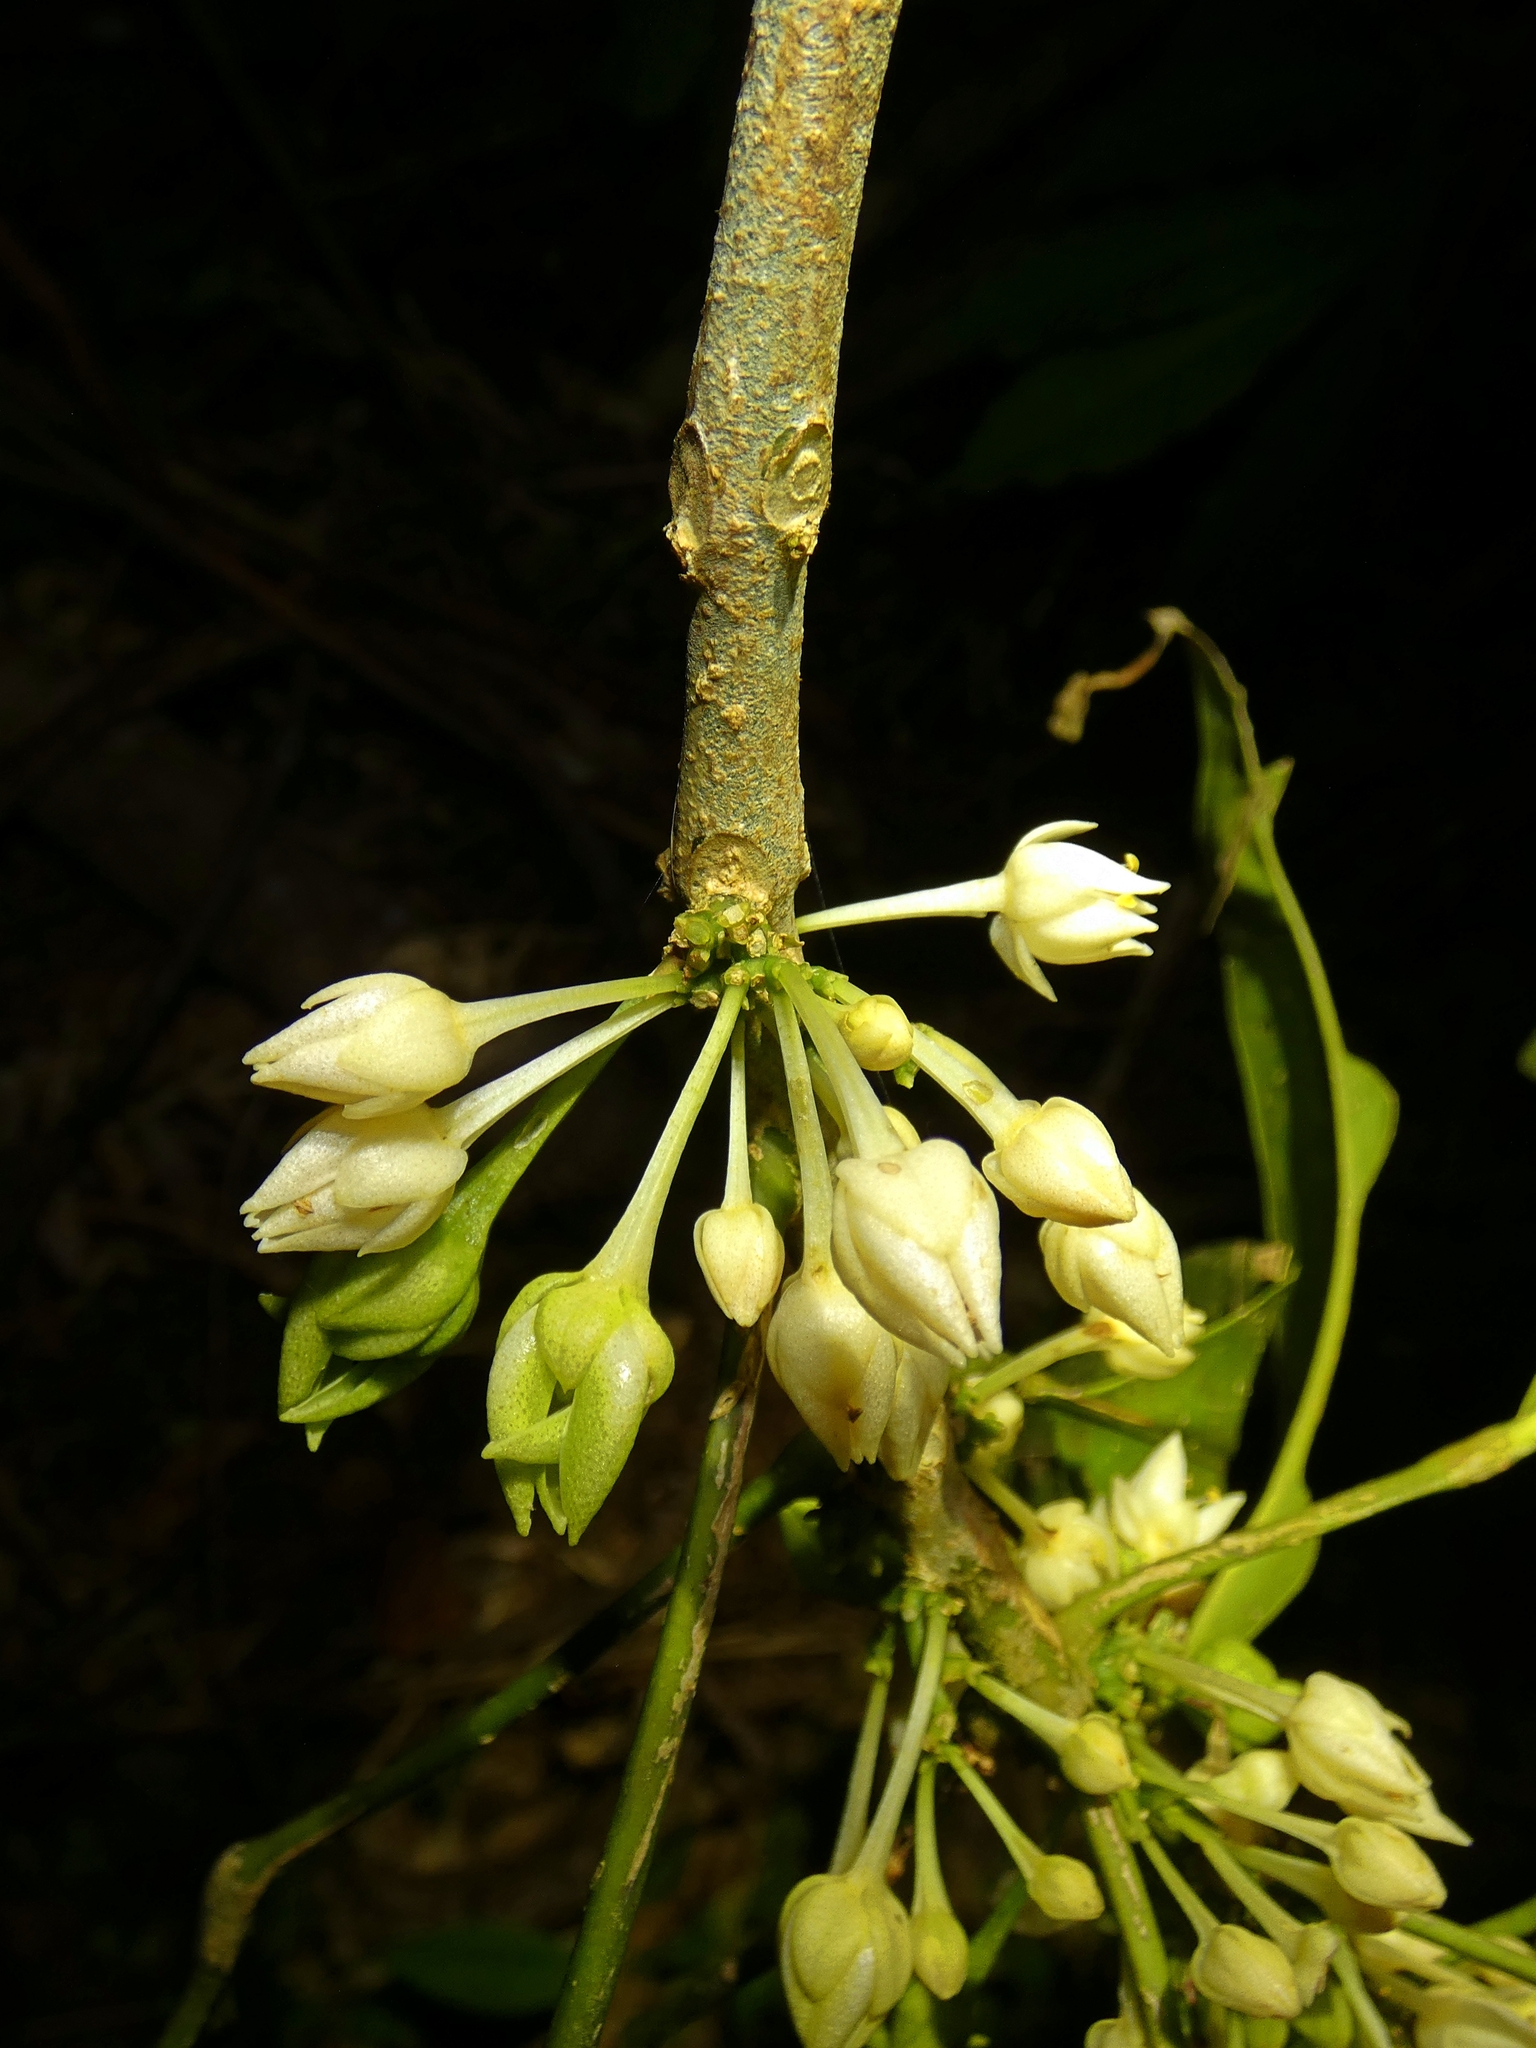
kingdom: Plantae
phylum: Tracheophyta
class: Magnoliopsida
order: Sapindales
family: Rutaceae
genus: Medicosma
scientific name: Medicosma fareana
